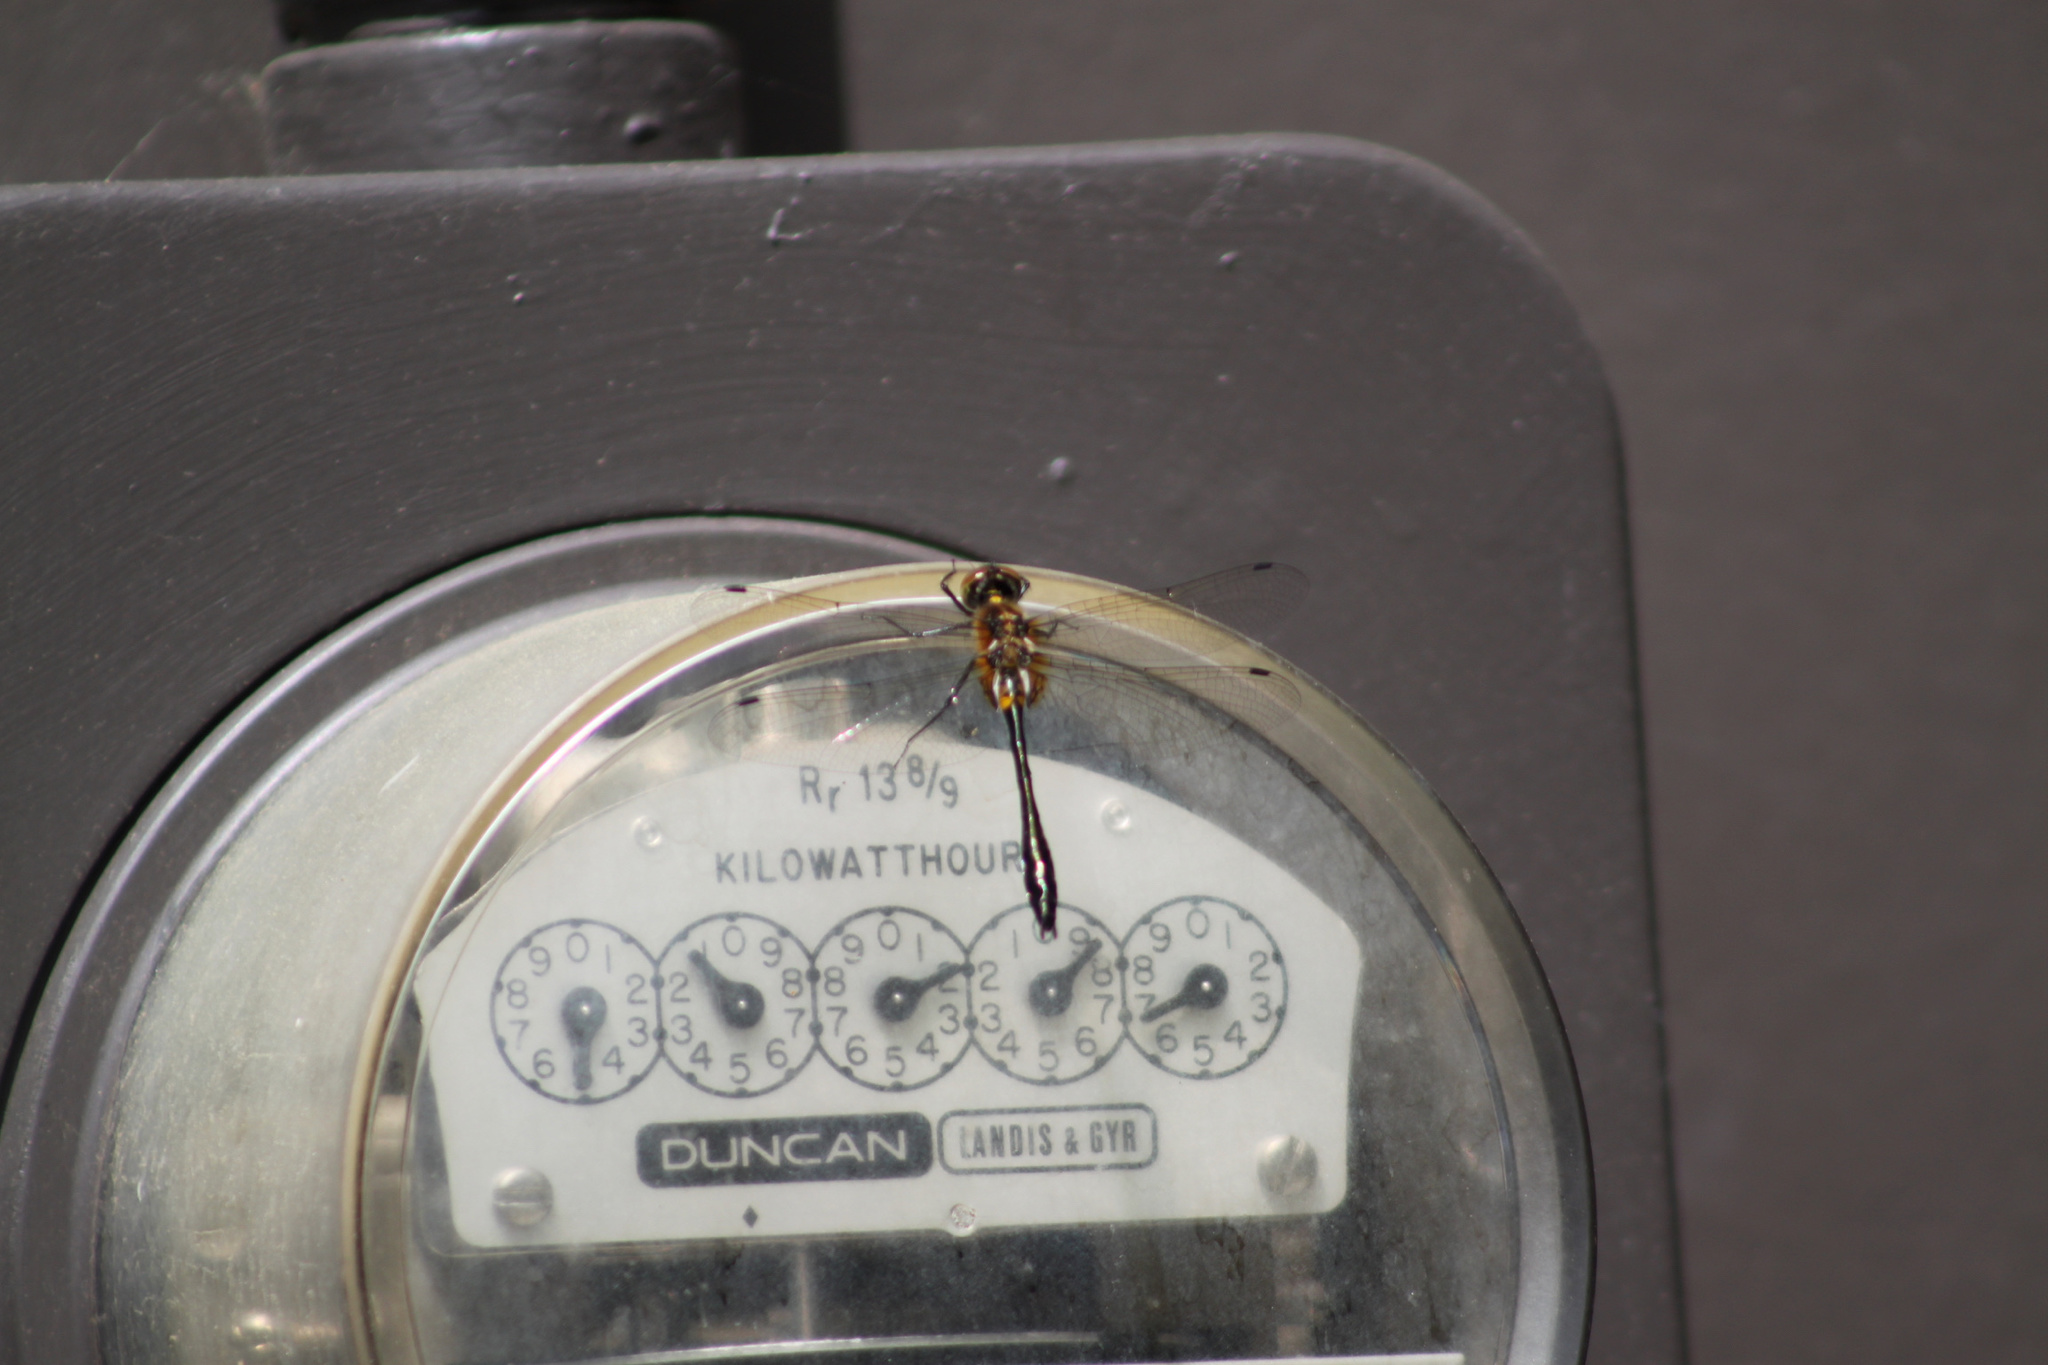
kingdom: Animalia
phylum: Arthropoda
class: Insecta
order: Odonata
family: Corduliidae
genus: Dorocordulia
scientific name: Dorocordulia libera
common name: Racket-tailed emerald
